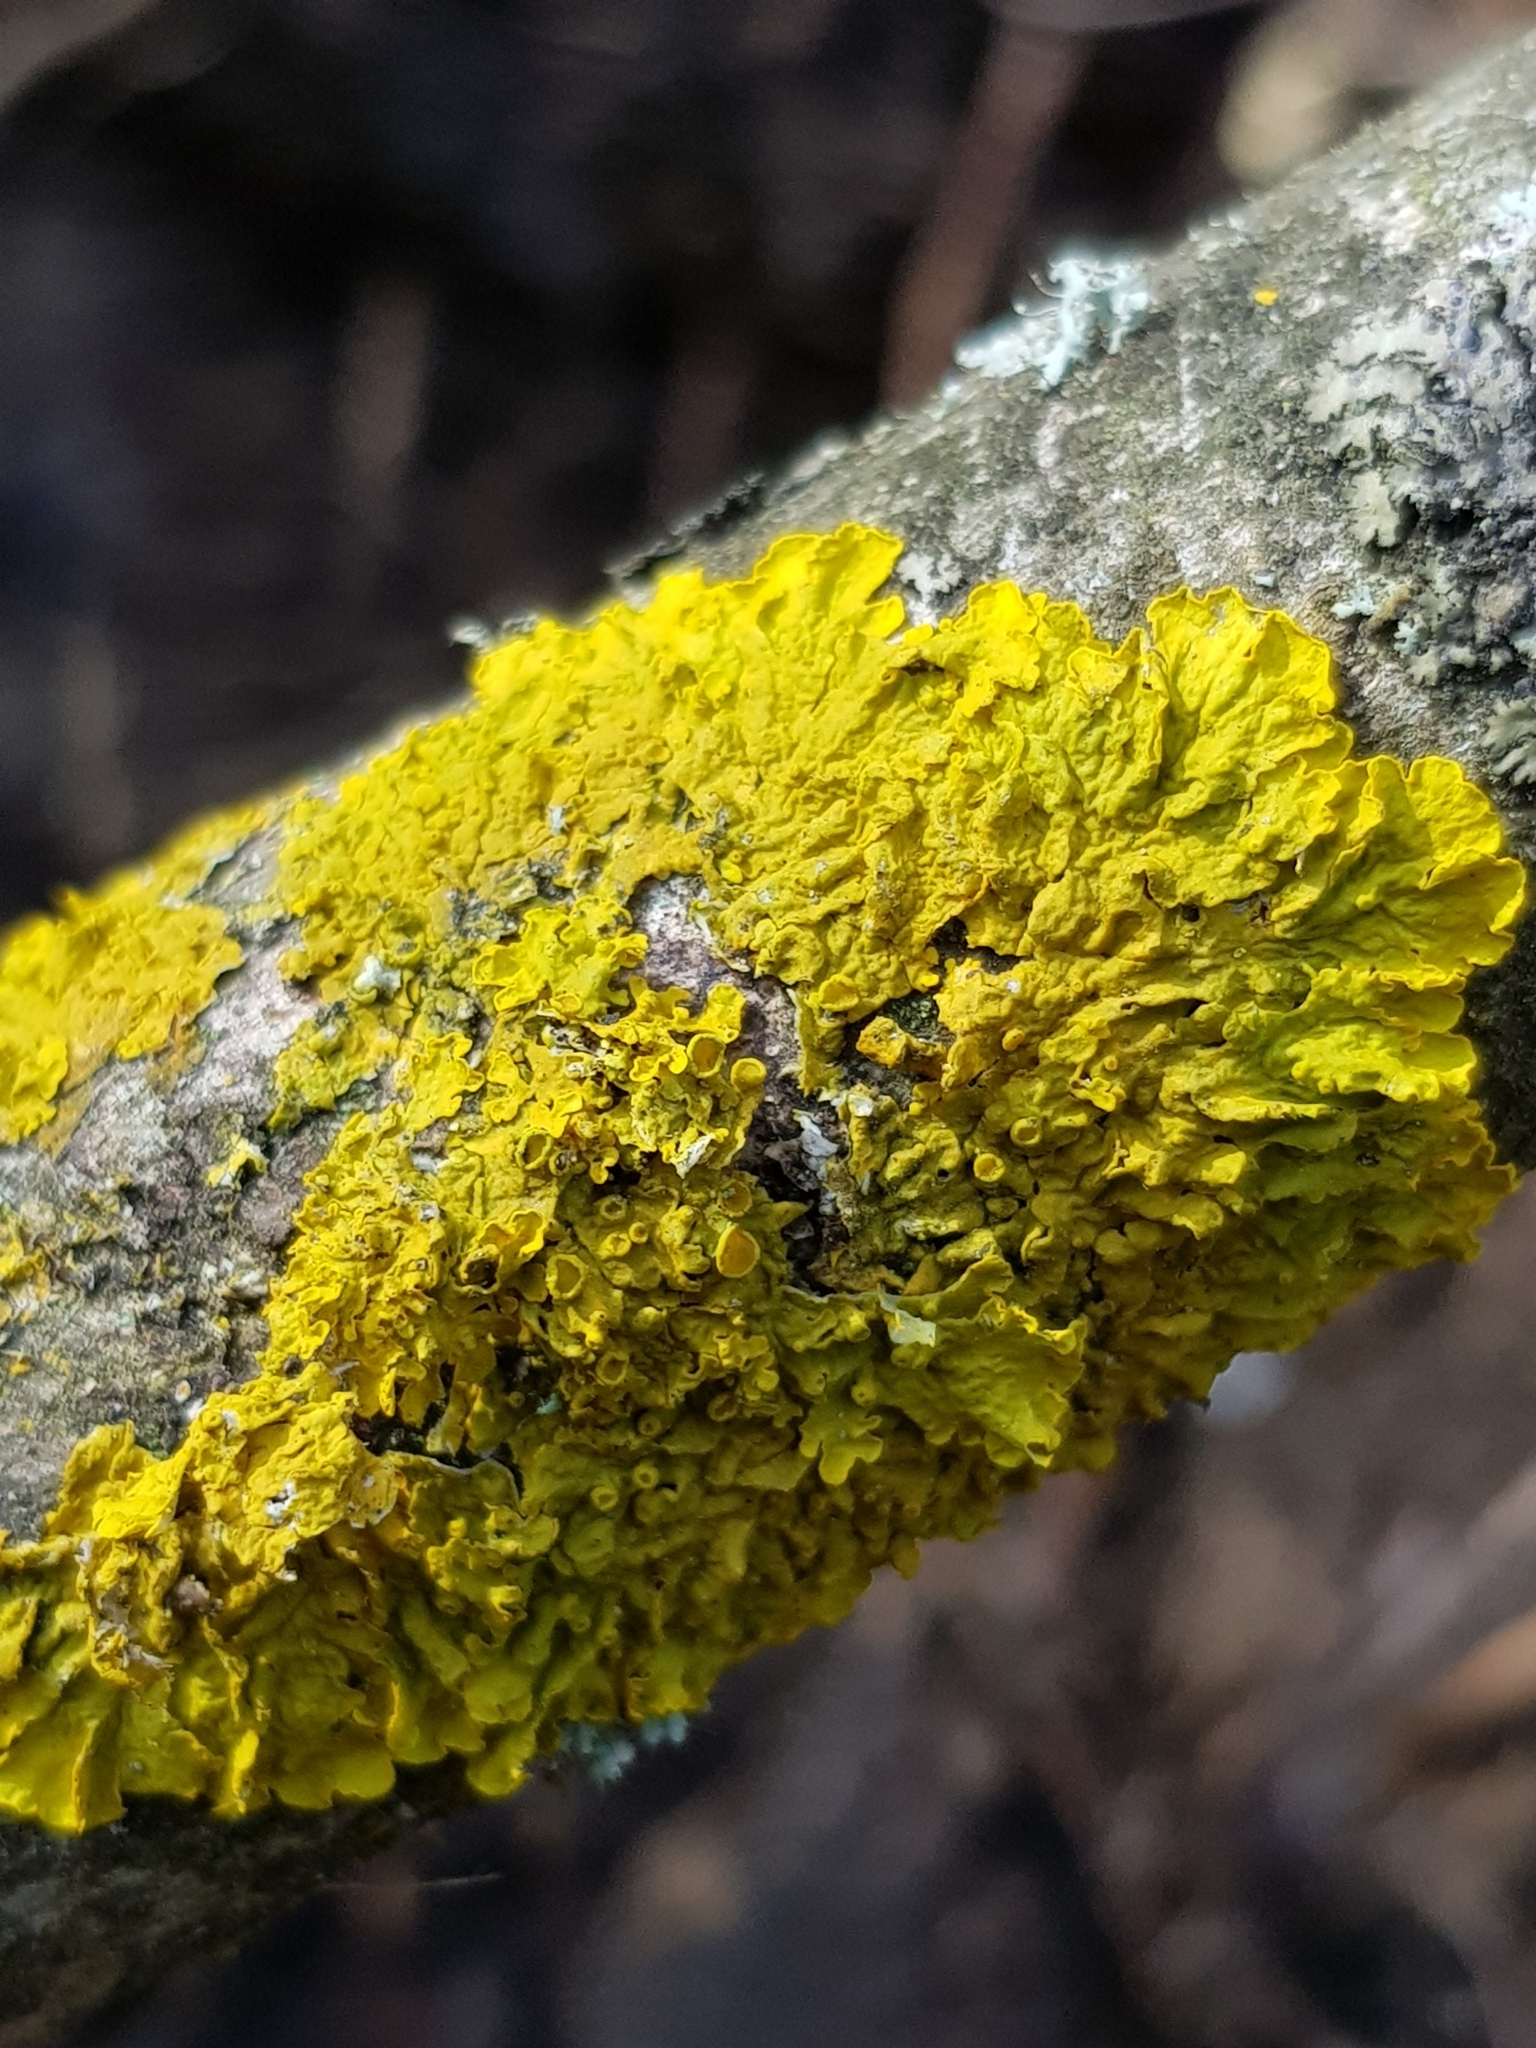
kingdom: Fungi
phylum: Ascomycota
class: Lecanoromycetes
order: Teloschistales
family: Teloschistaceae
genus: Xanthoria
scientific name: Xanthoria parietina
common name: Common orange lichen
